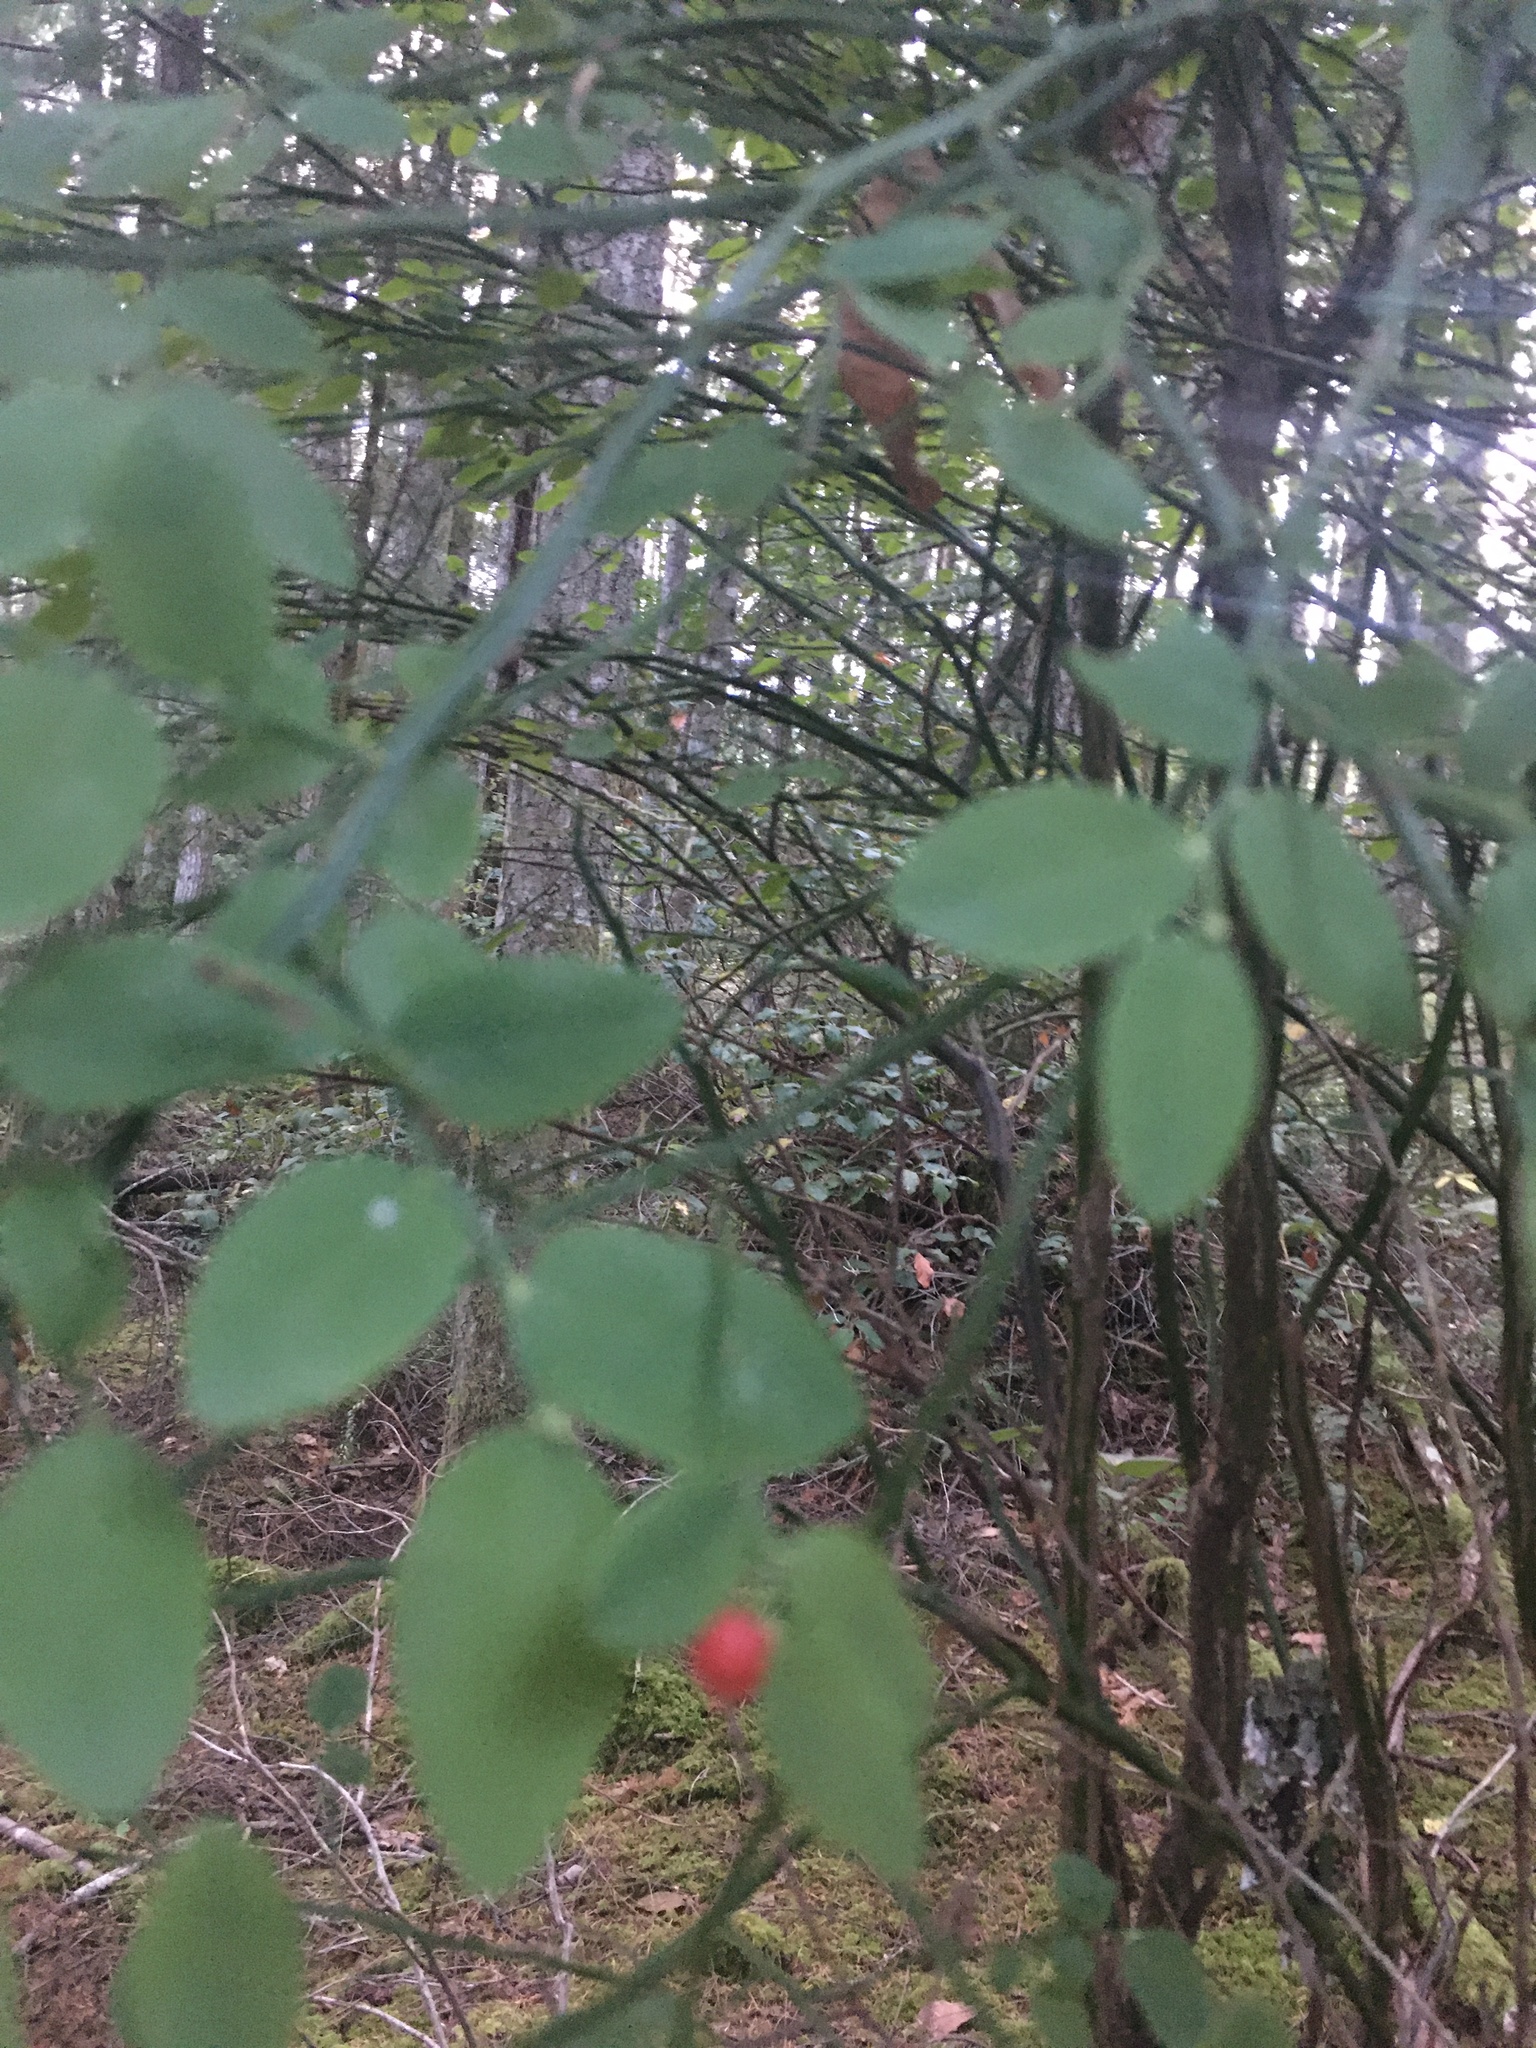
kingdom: Plantae
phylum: Tracheophyta
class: Magnoliopsida
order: Ericales
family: Ericaceae
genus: Vaccinium
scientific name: Vaccinium parvifolium
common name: Red-huckleberry
